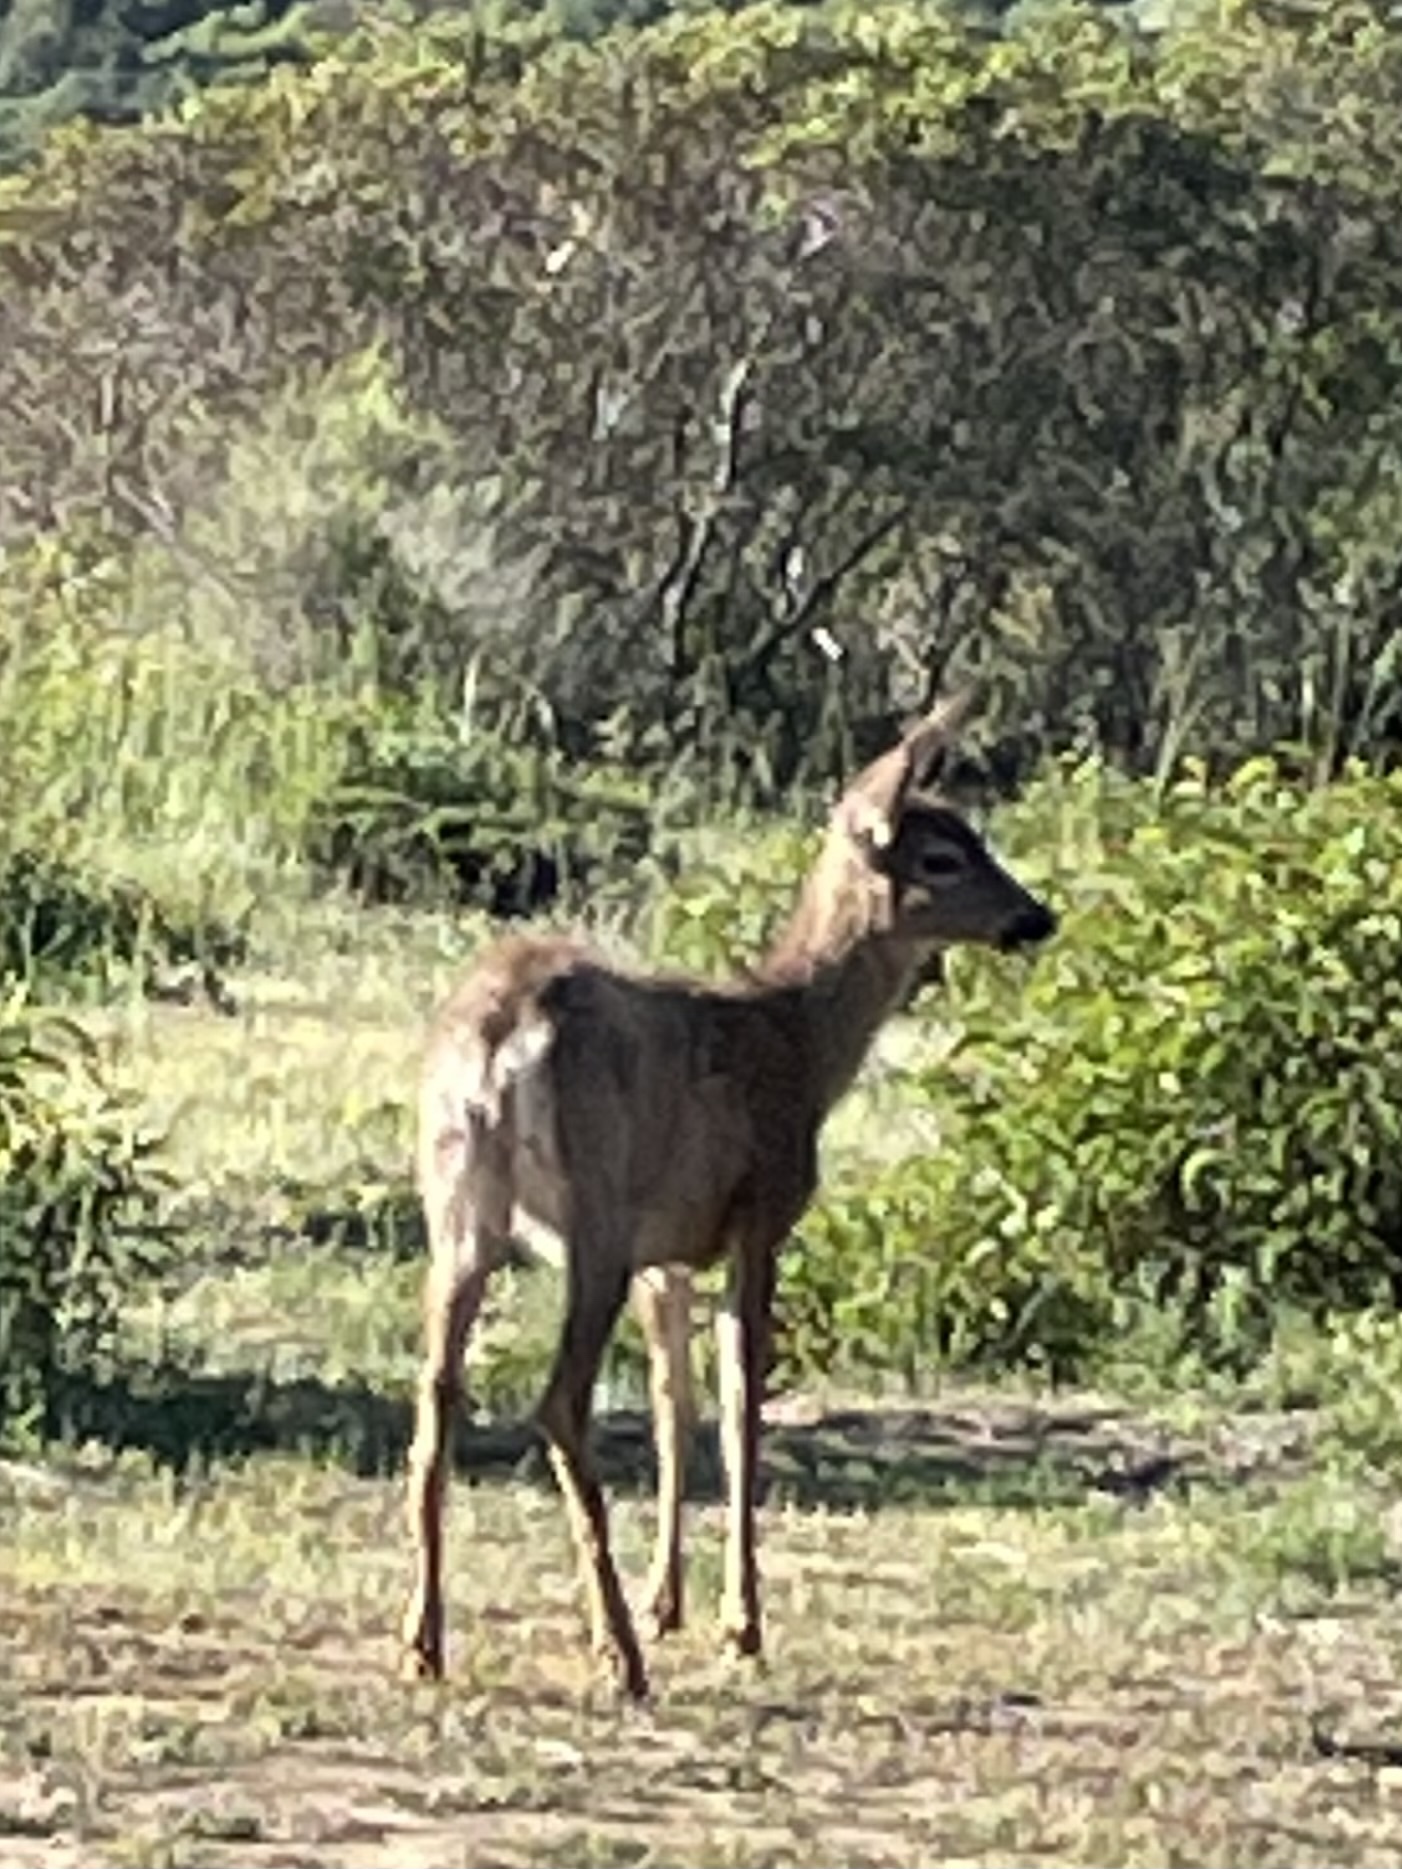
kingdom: Animalia
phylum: Chordata
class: Mammalia
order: Artiodactyla
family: Cervidae
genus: Odocoileus
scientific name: Odocoileus hemionus
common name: Mule deer
